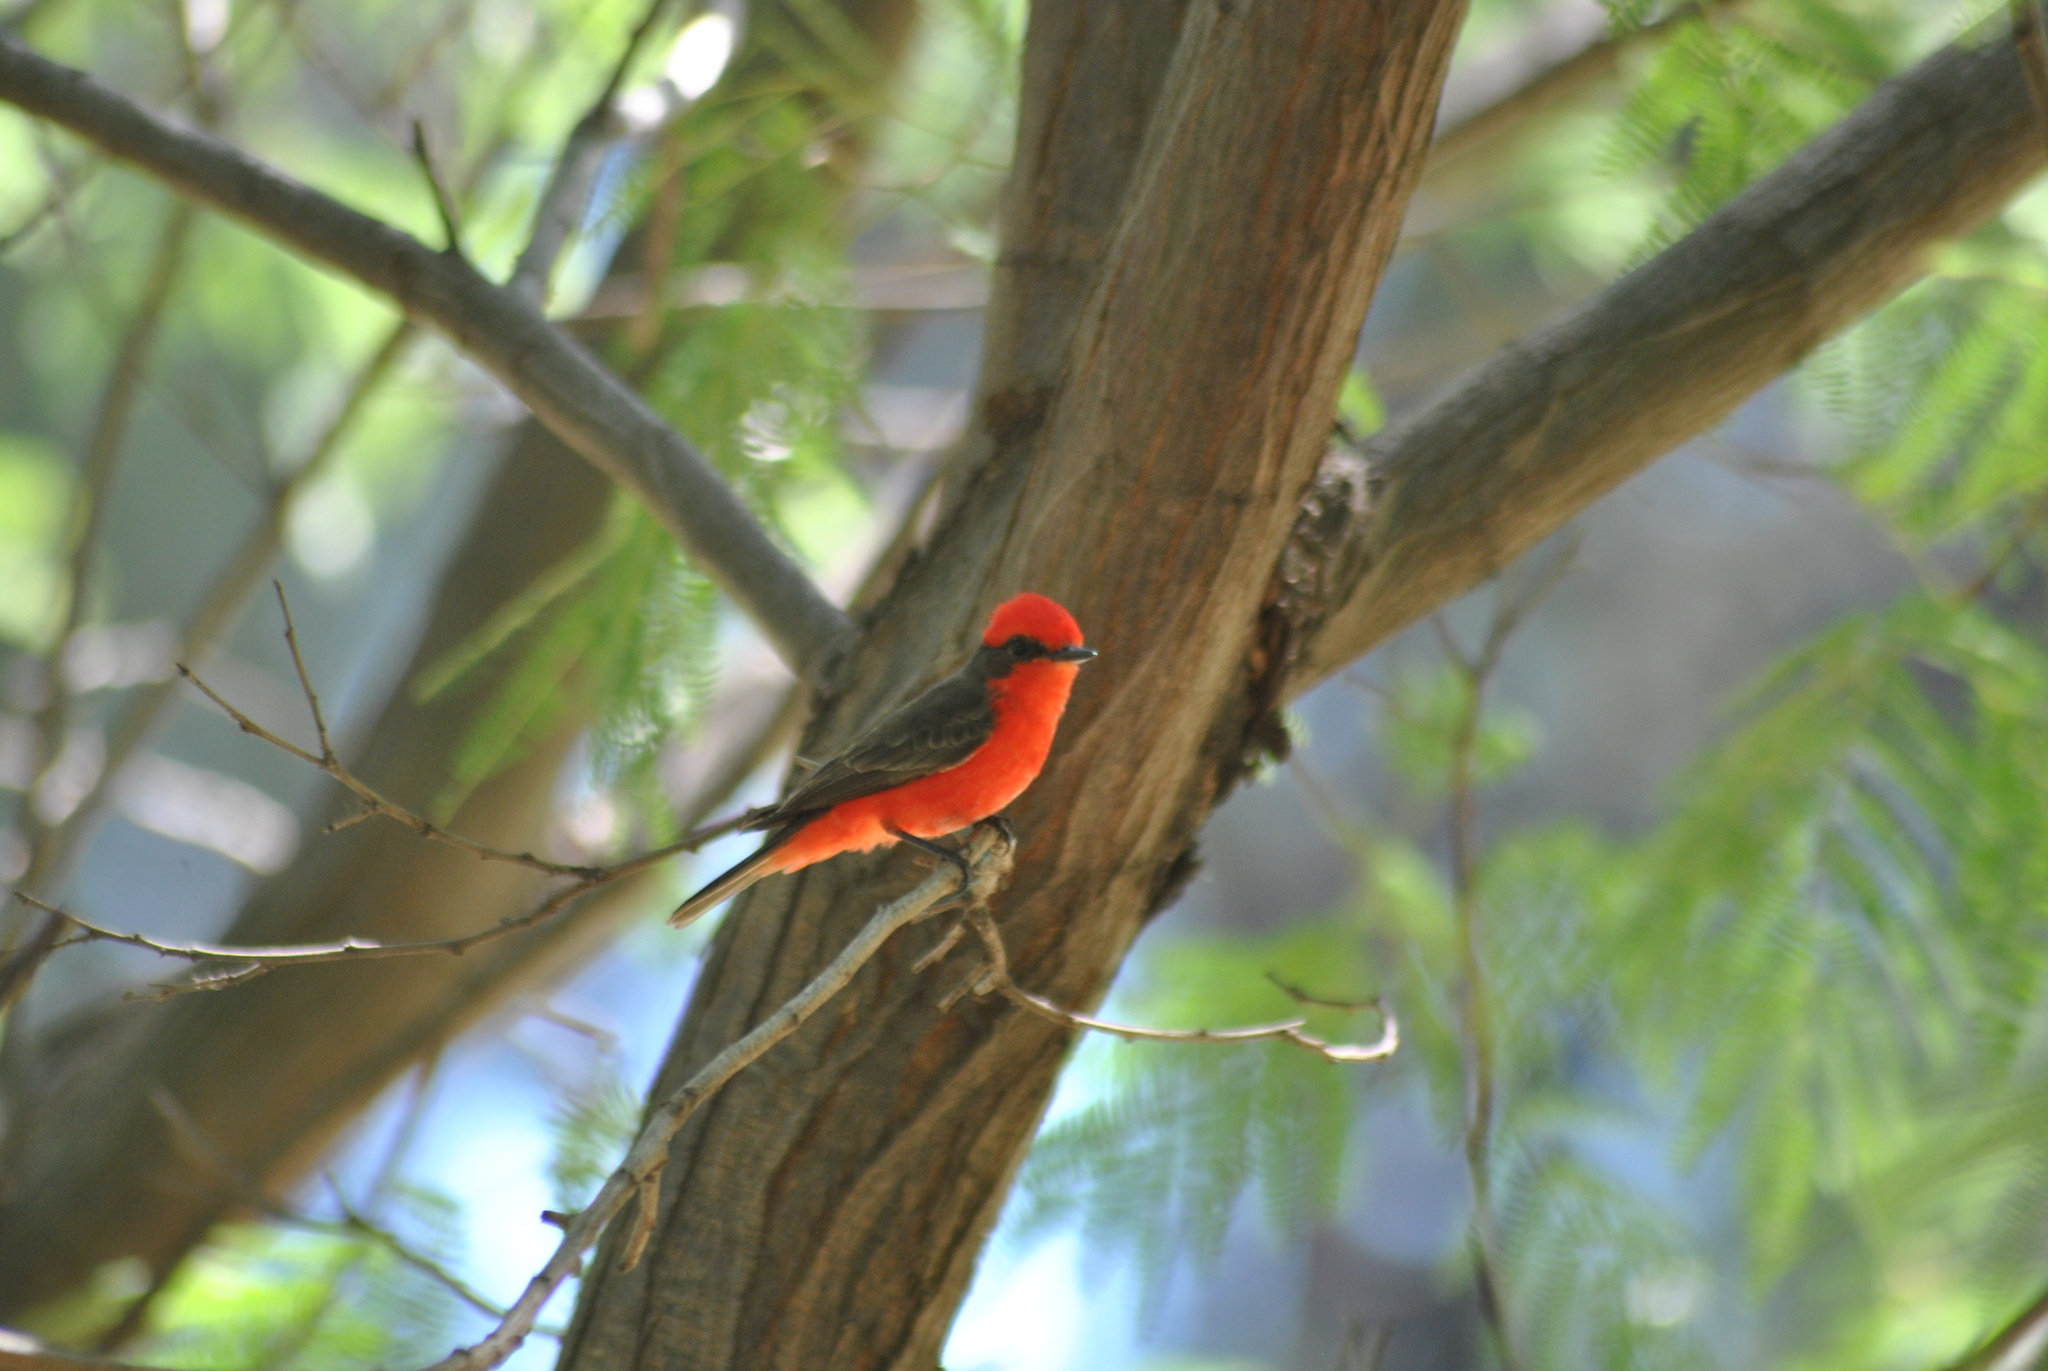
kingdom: Animalia
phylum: Chordata
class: Aves
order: Passeriformes
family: Tyrannidae
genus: Pyrocephalus
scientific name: Pyrocephalus rubinus
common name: Vermilion flycatcher
